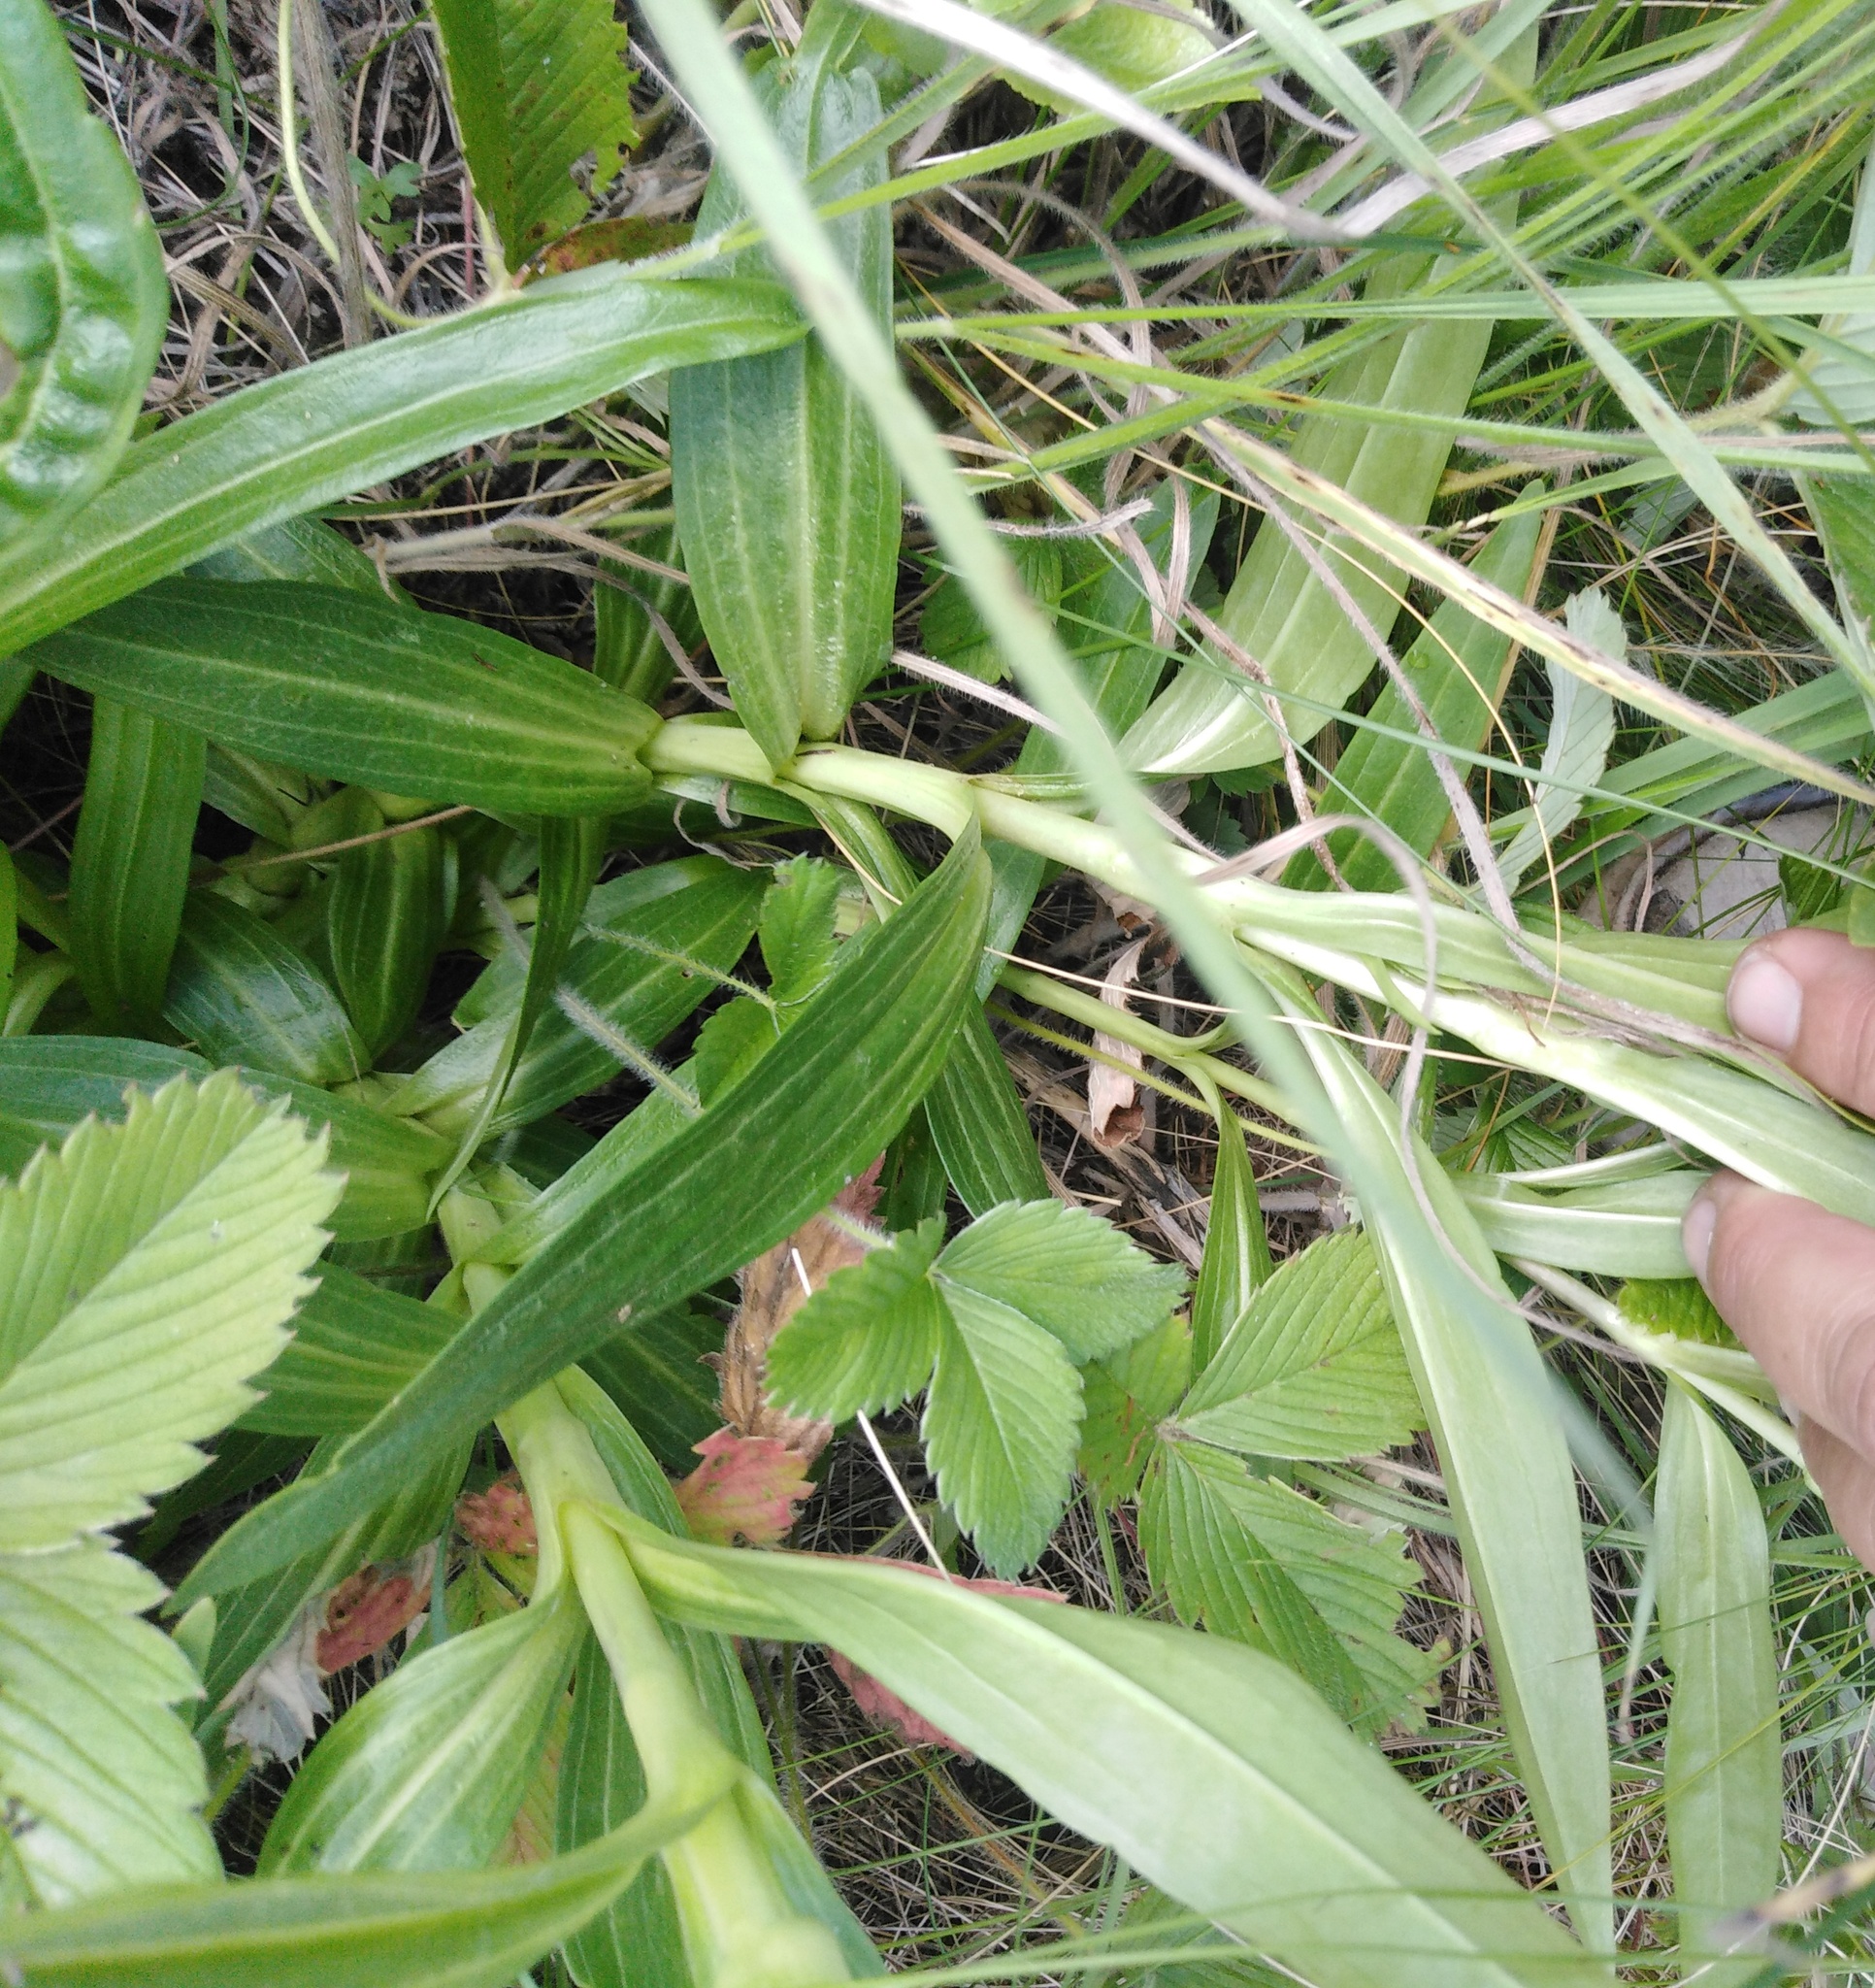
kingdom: Plantae
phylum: Tracheophyta
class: Magnoliopsida
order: Gentianales
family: Gentianaceae
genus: Gentiana
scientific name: Gentiana cruciata
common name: Cross gentian
